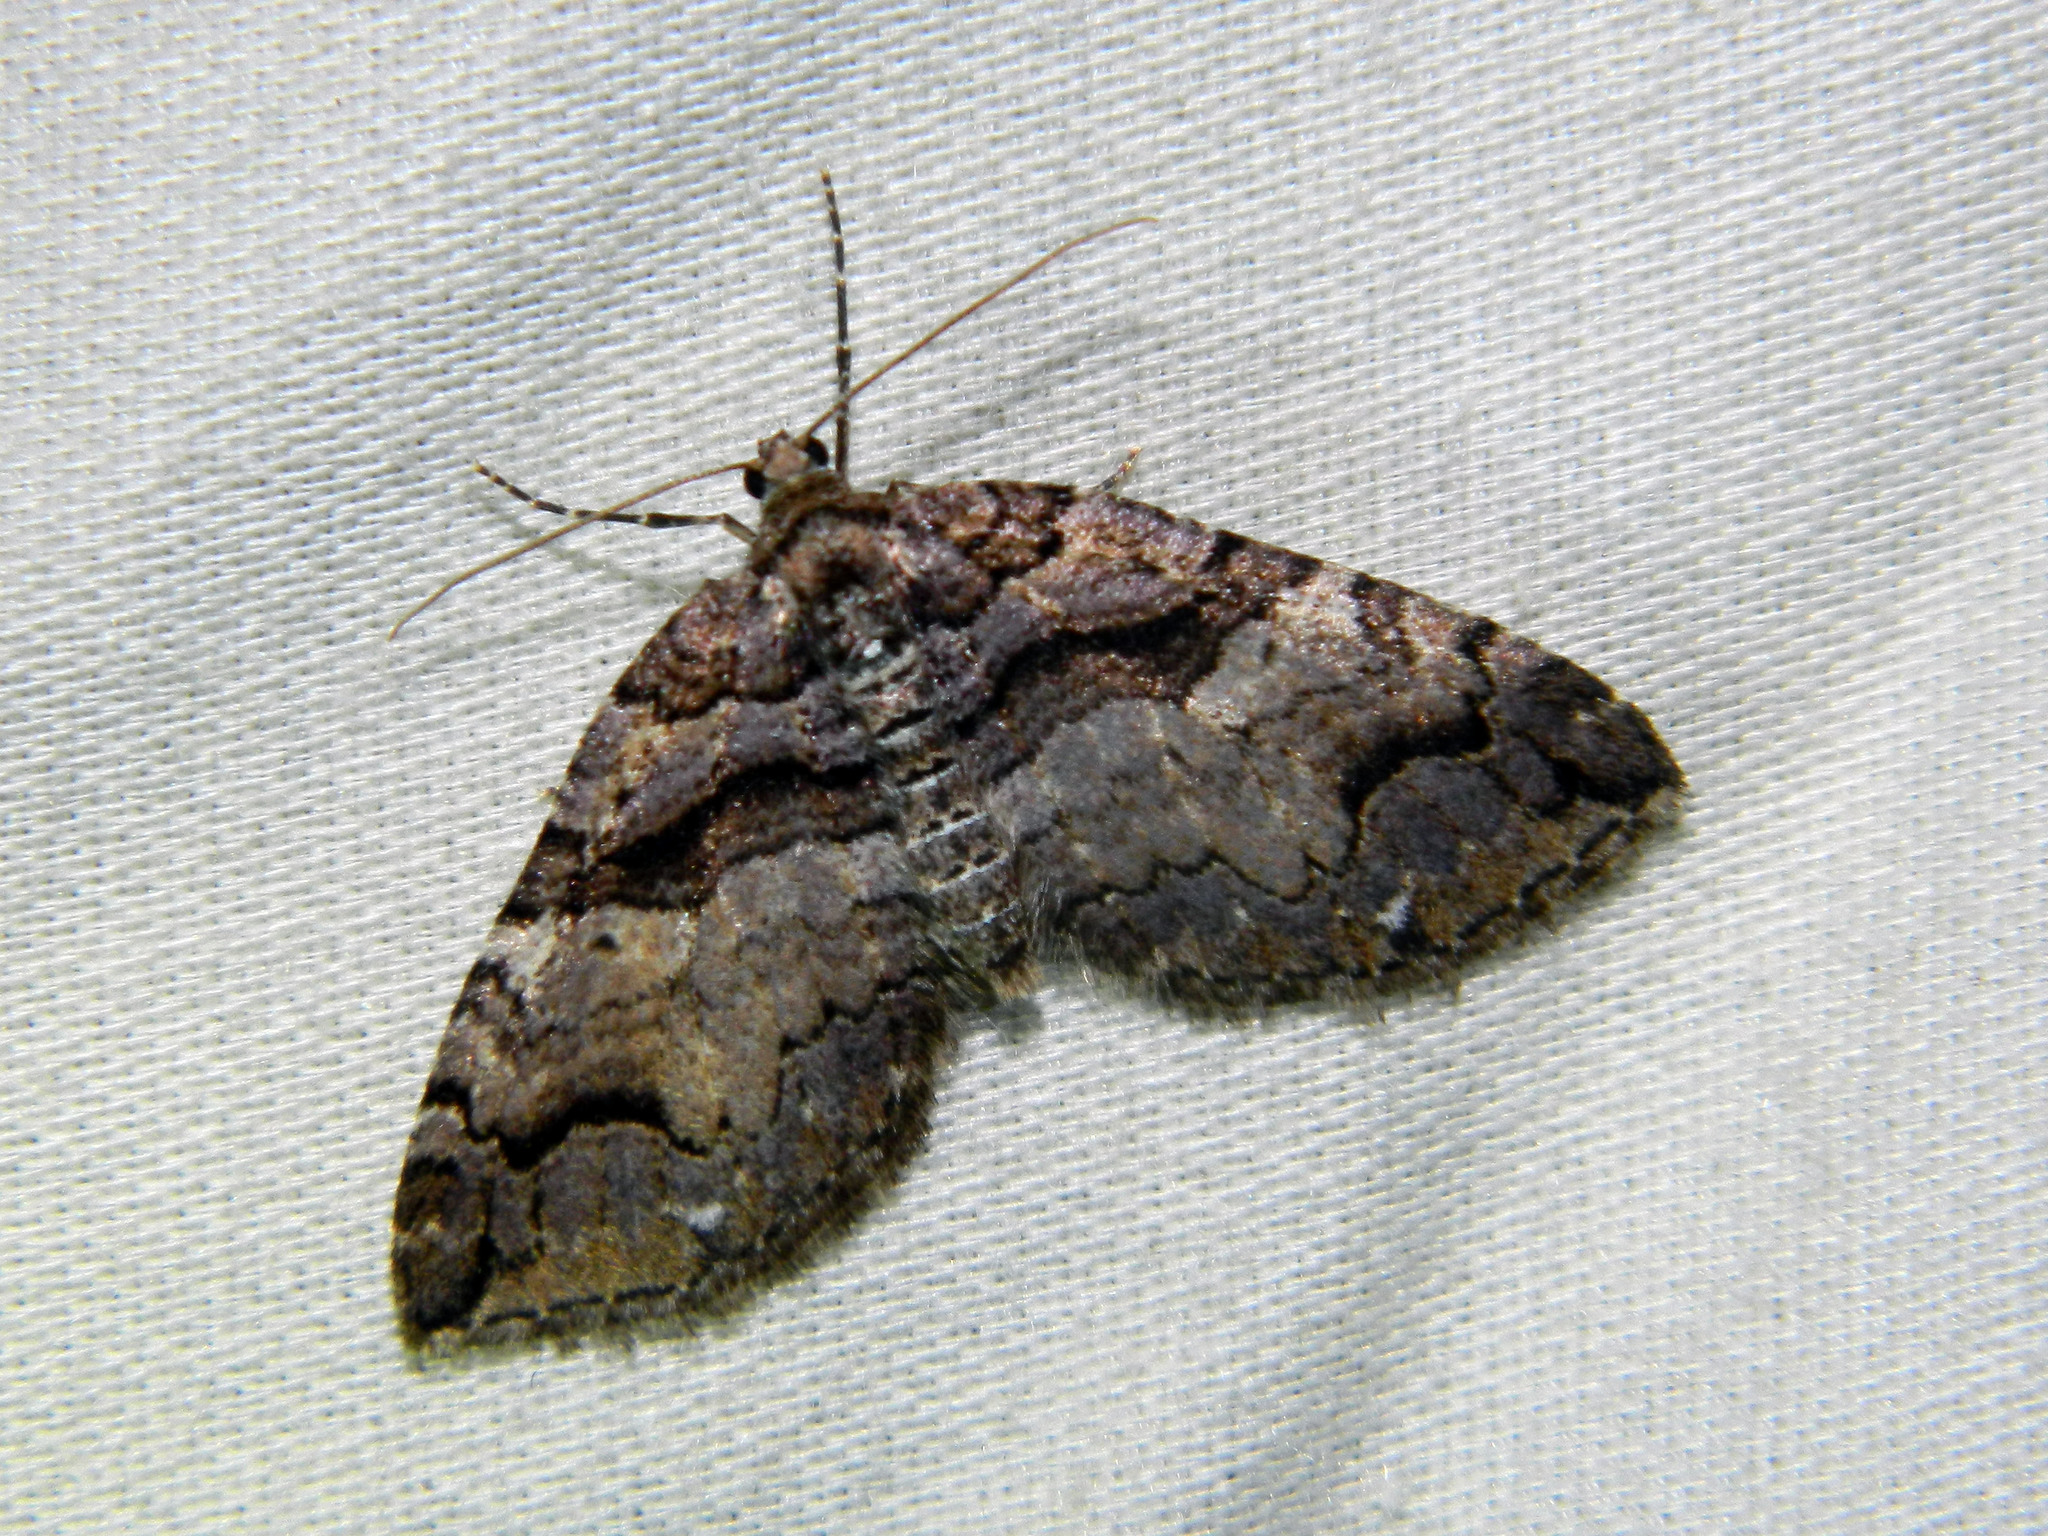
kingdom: Animalia
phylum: Arthropoda
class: Insecta
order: Lepidoptera
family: Geometridae
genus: Anticlea
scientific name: Anticlea vasiliata
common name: Variable carpet
